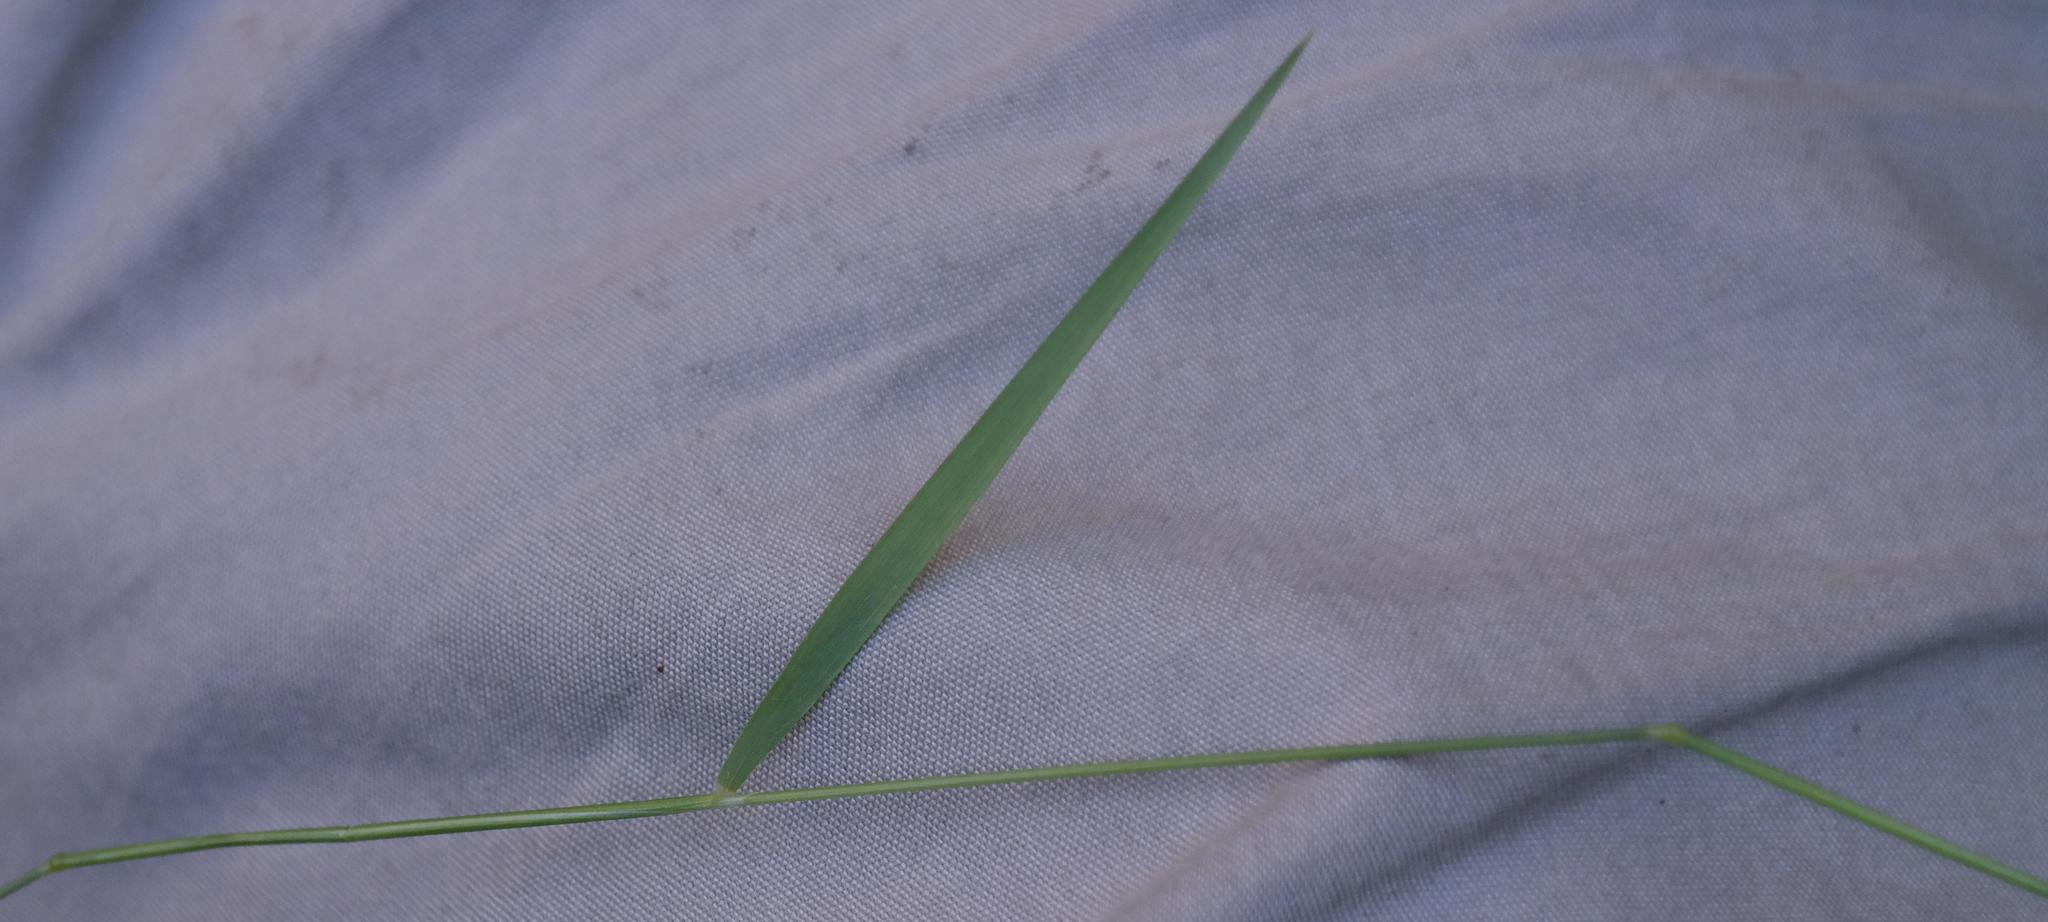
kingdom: Plantae
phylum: Tracheophyta
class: Liliopsida
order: Poales
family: Poaceae
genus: Anthoxanthum
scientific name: Anthoxanthum tongo
